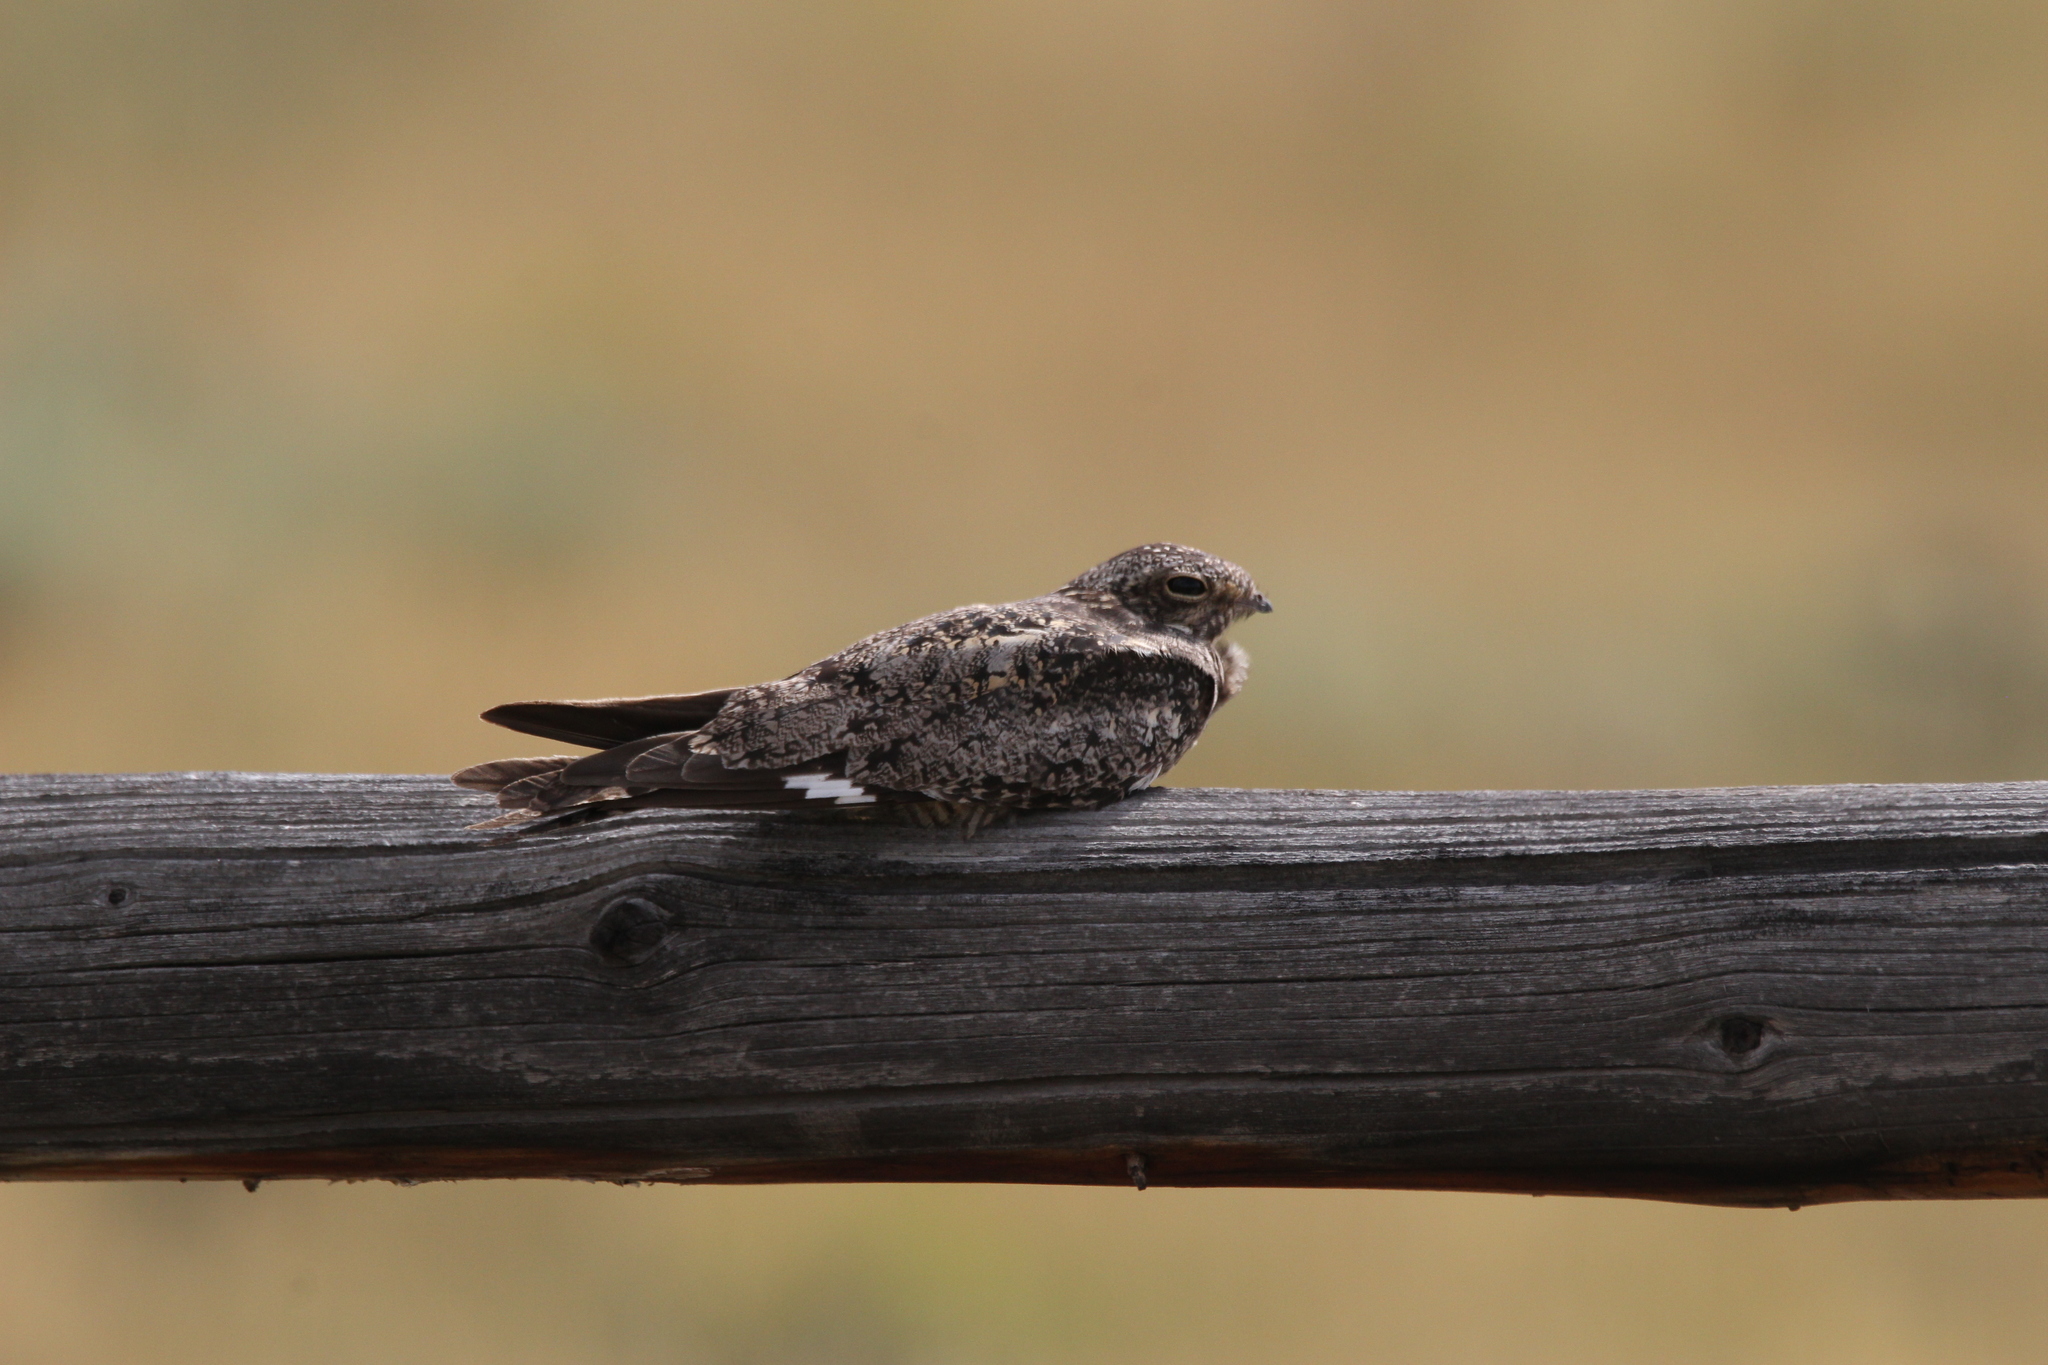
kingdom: Animalia
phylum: Chordata
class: Aves
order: Caprimulgiformes
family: Caprimulgidae
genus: Chordeiles
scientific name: Chordeiles minor
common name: Common nighthawk
